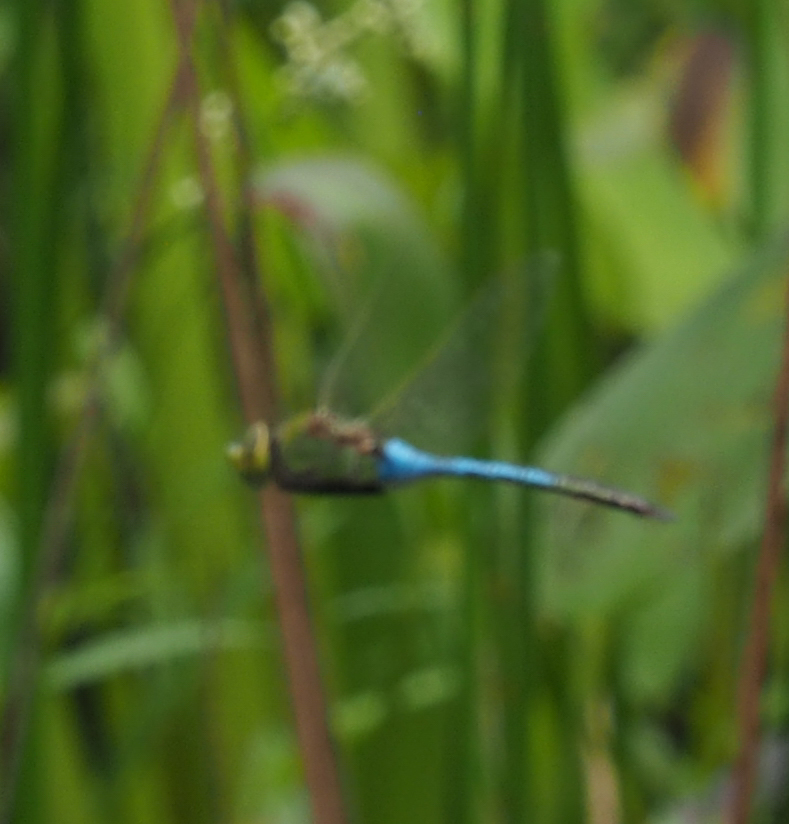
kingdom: Animalia
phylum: Arthropoda
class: Insecta
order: Odonata
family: Aeshnidae
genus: Anax
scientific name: Anax junius
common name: Common green darner
